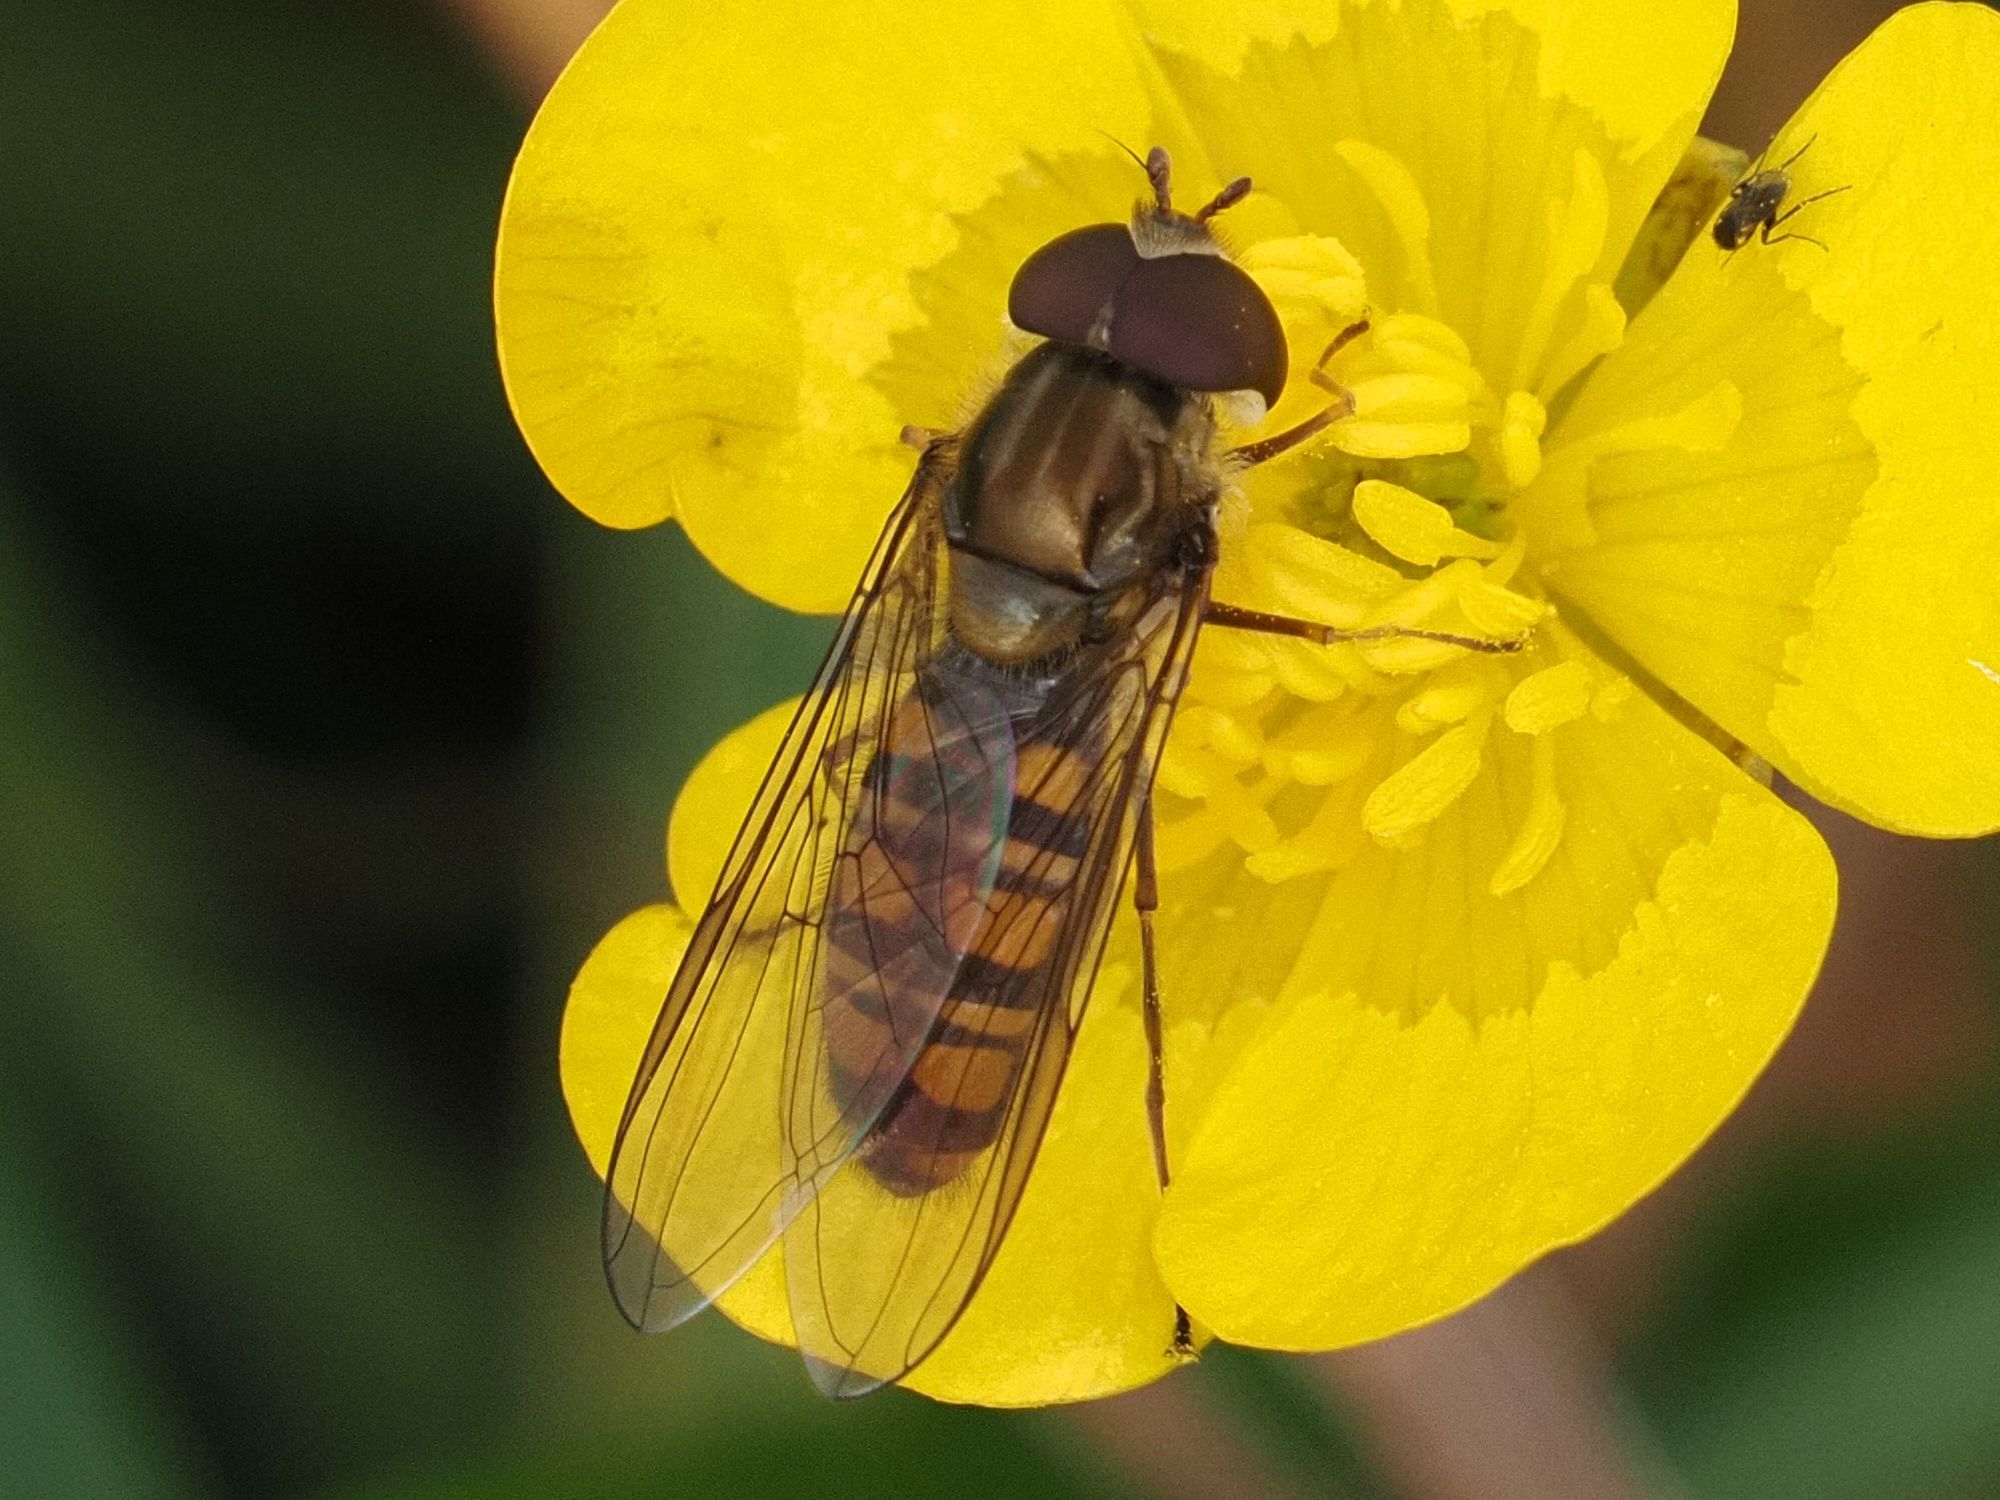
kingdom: Animalia
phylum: Arthropoda
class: Insecta
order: Diptera
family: Syrphidae
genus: Episyrphus
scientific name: Episyrphus balteatus
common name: Marmalade hoverfly
